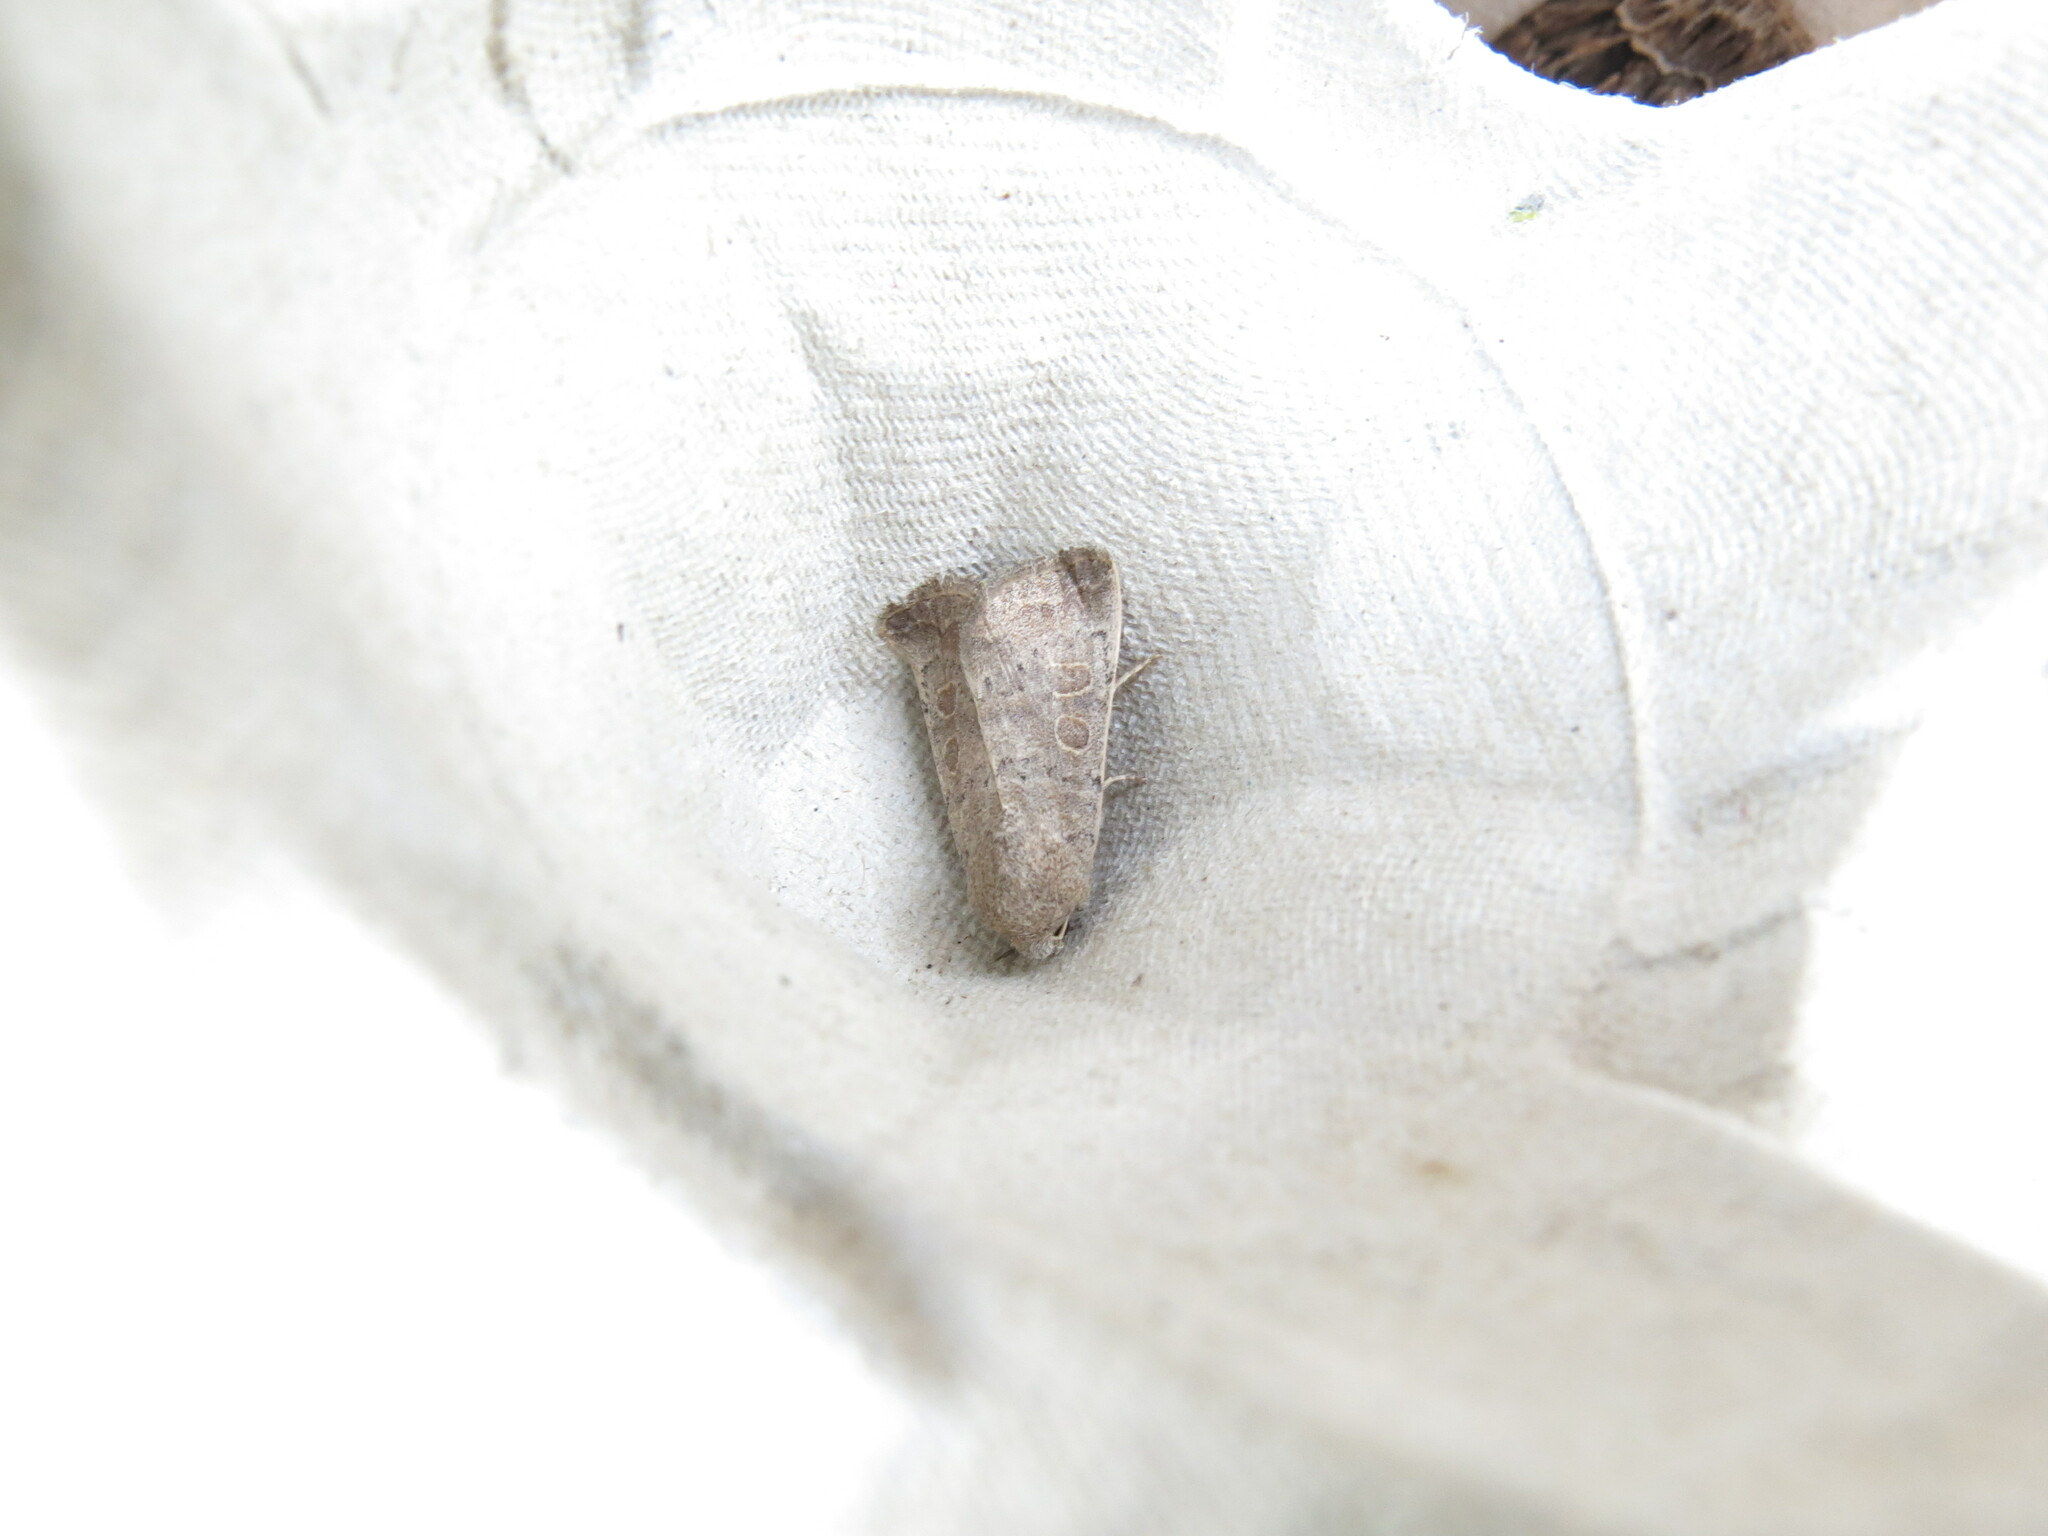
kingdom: Animalia
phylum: Arthropoda
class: Insecta
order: Lepidoptera
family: Noctuidae
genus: Hoplodrina
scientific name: Hoplodrina ambigua
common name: Vine's rustic
